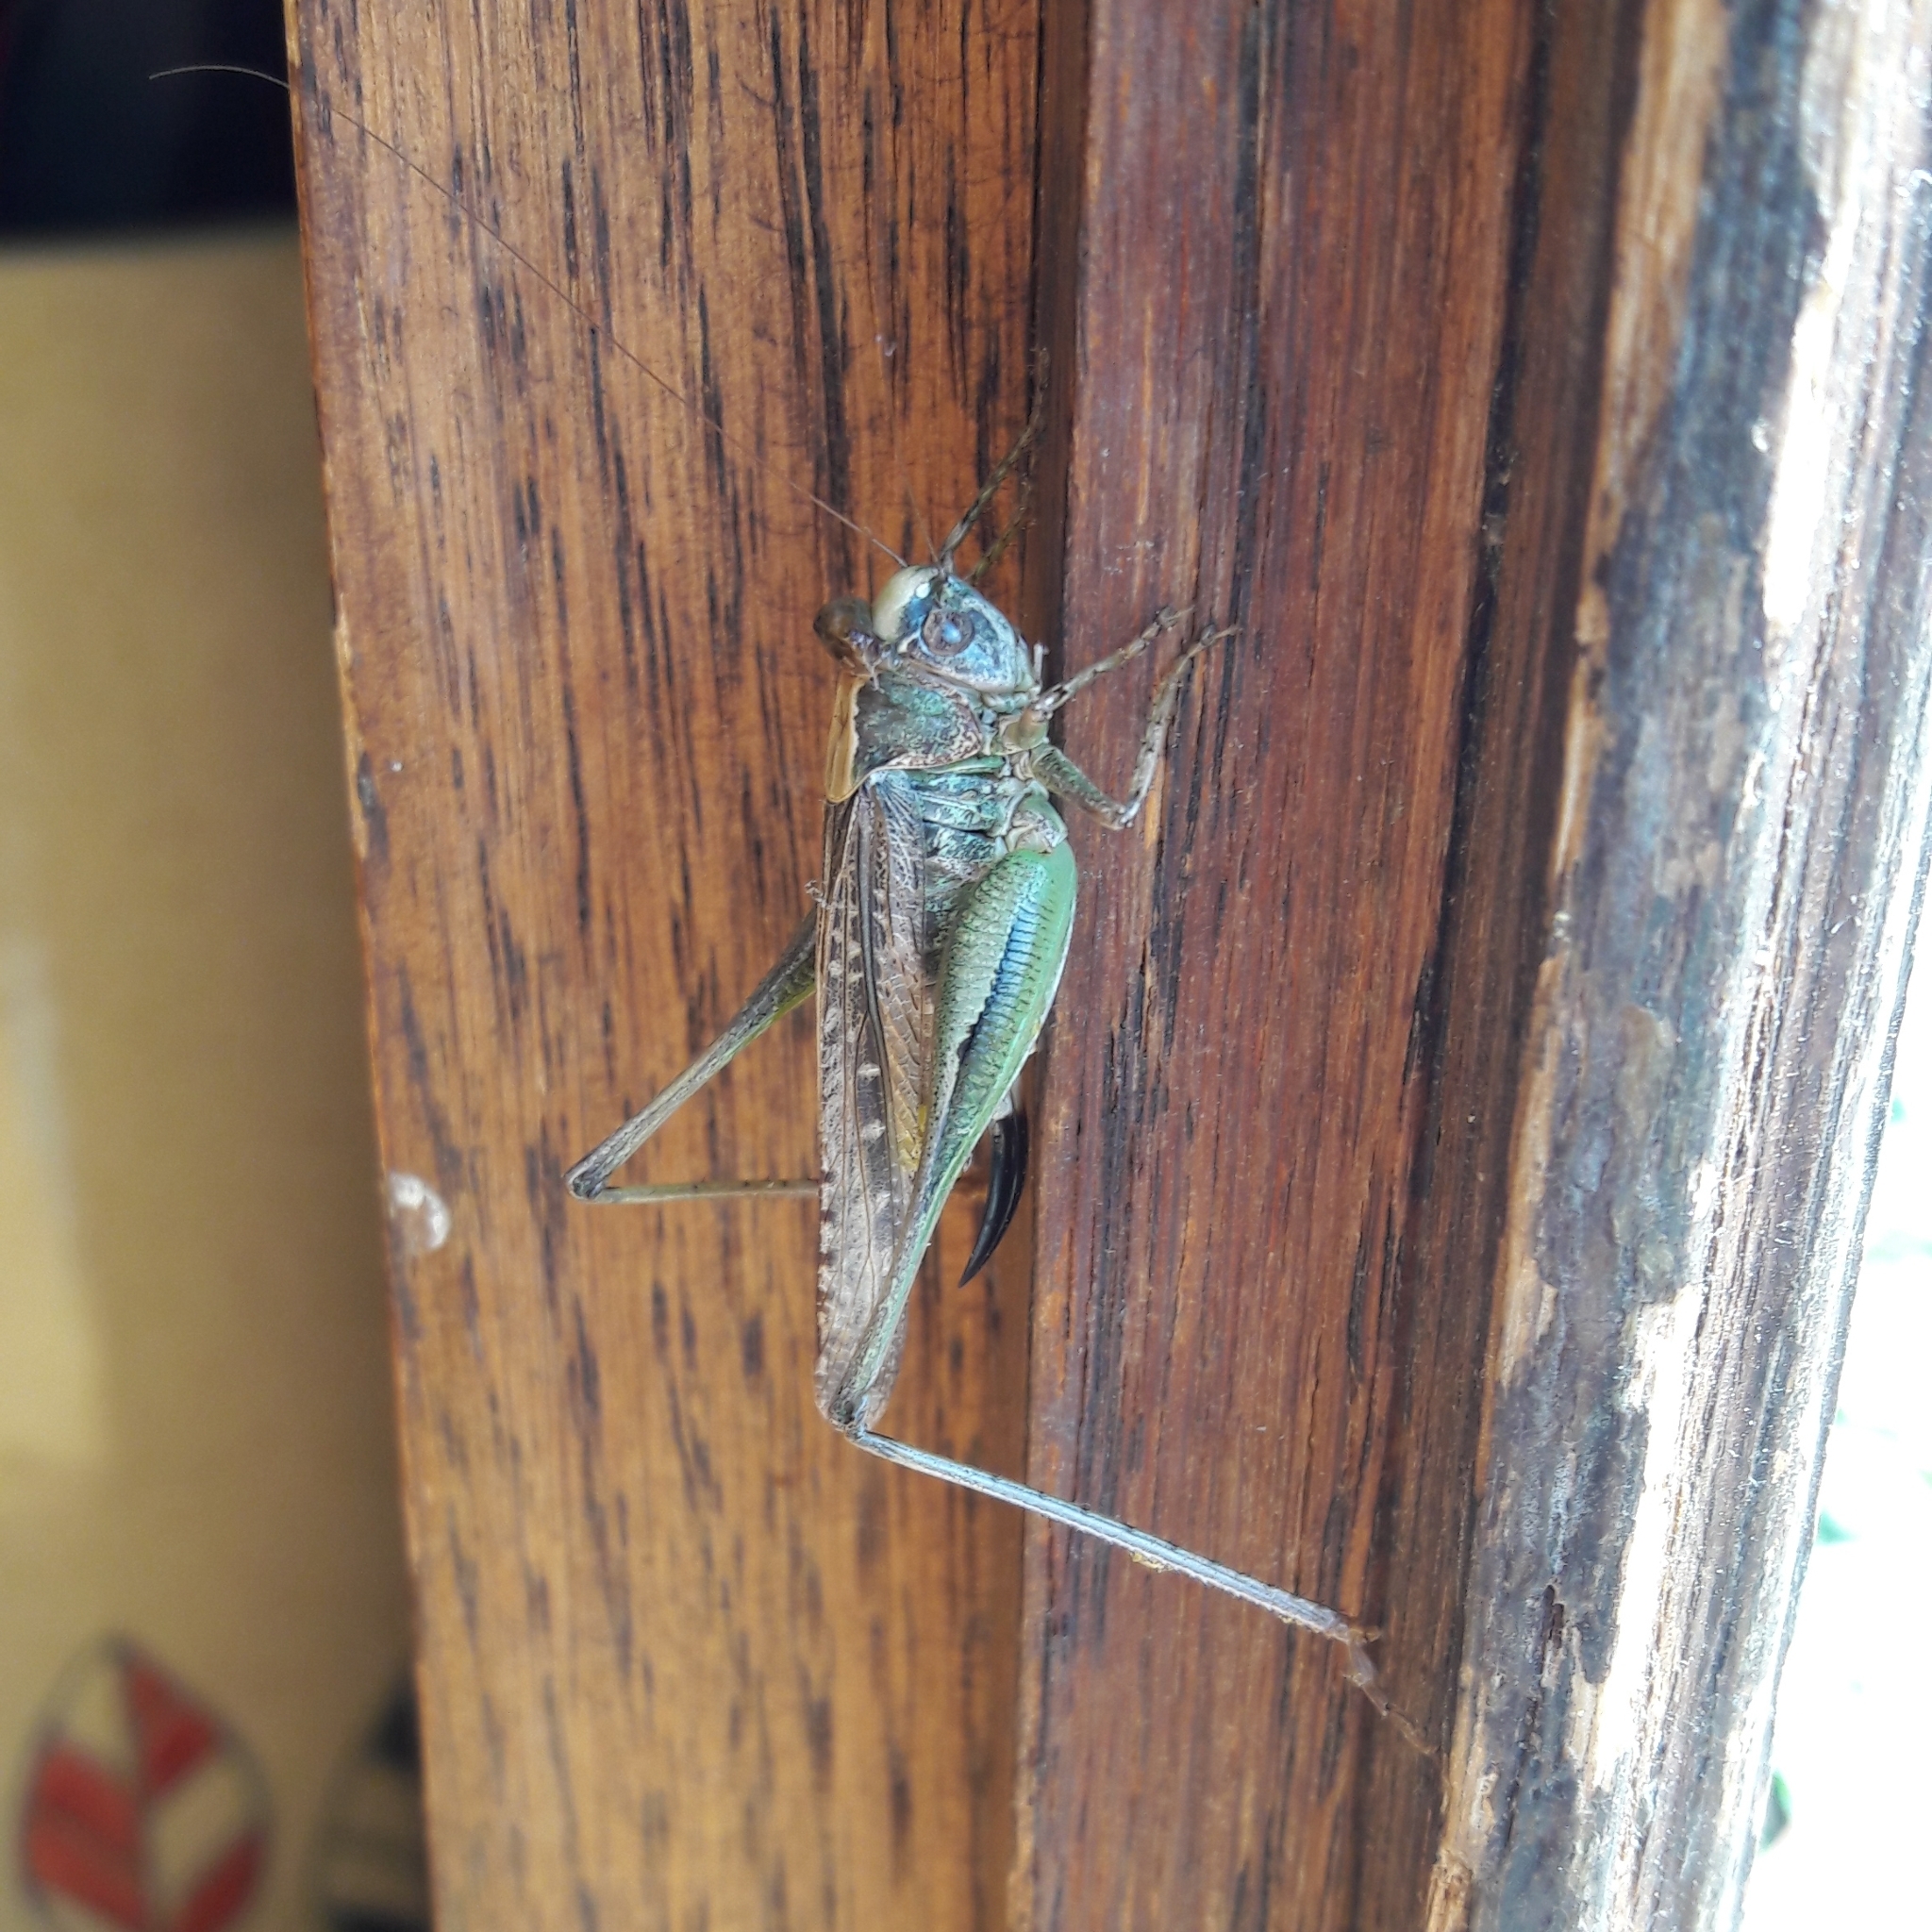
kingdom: Animalia
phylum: Arthropoda
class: Insecta
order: Orthoptera
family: Tettigoniidae
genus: Platycleis
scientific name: Platycleis grisea
